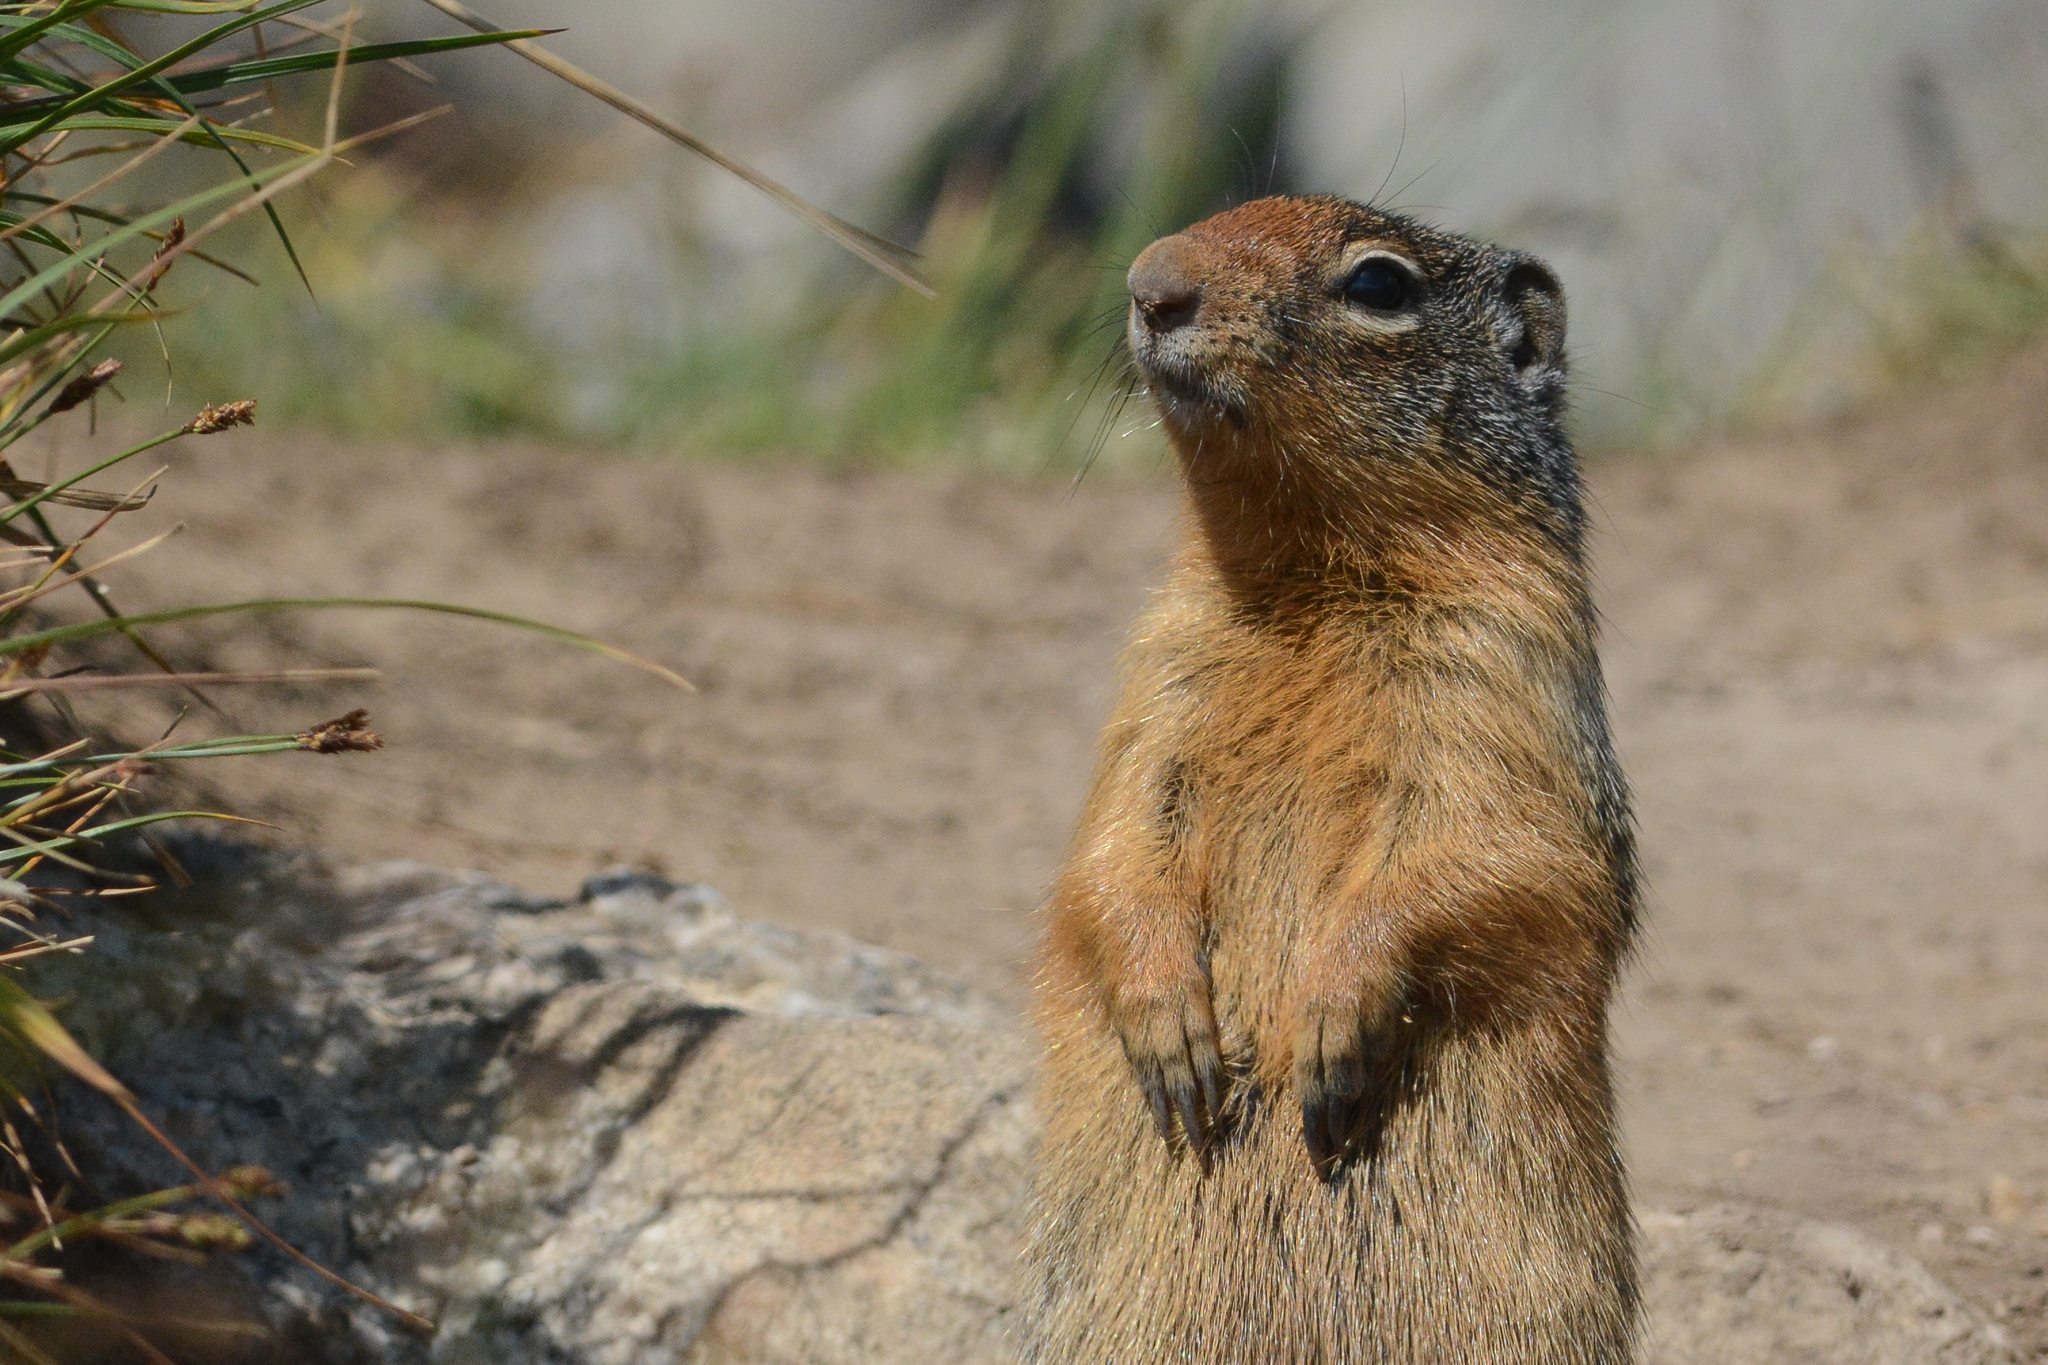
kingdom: Animalia
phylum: Chordata
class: Mammalia
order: Rodentia
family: Sciuridae
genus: Urocitellus
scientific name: Urocitellus columbianus
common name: Columbian ground squirrel
